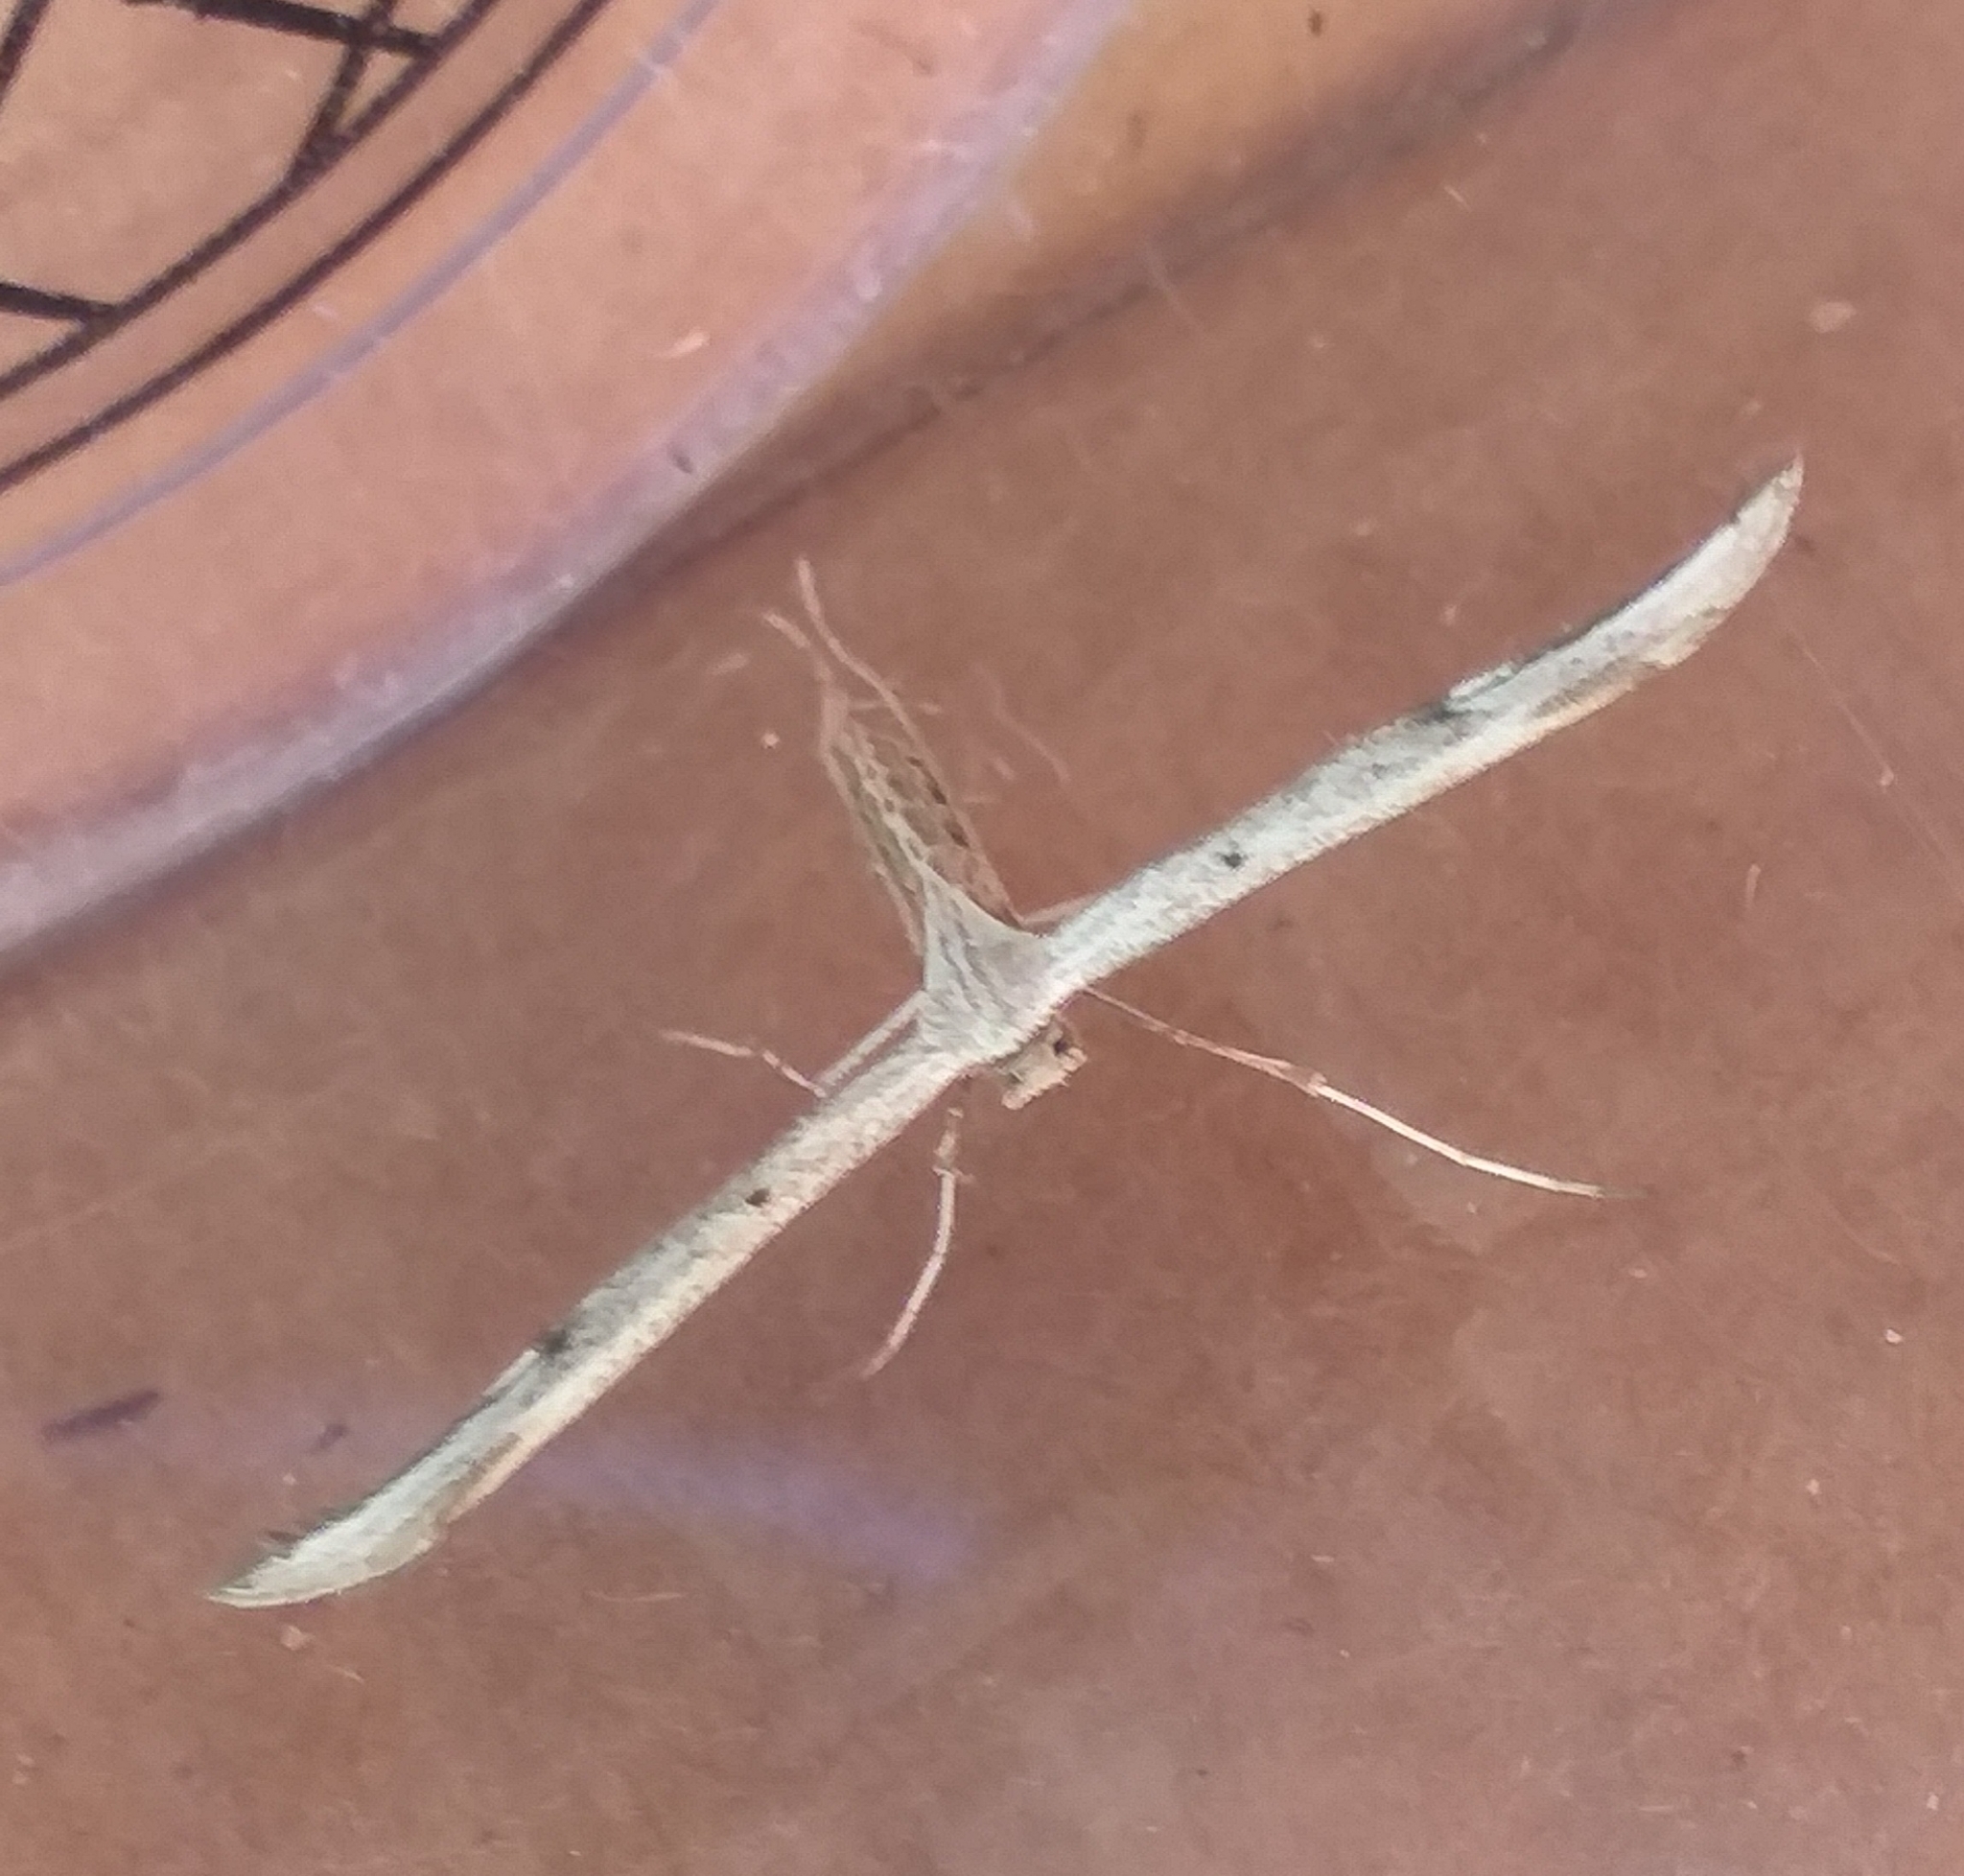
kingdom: Animalia
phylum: Arthropoda
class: Insecta
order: Lepidoptera
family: Pterophoridae
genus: Emmelina
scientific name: Emmelina monodactyla
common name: Common plume
